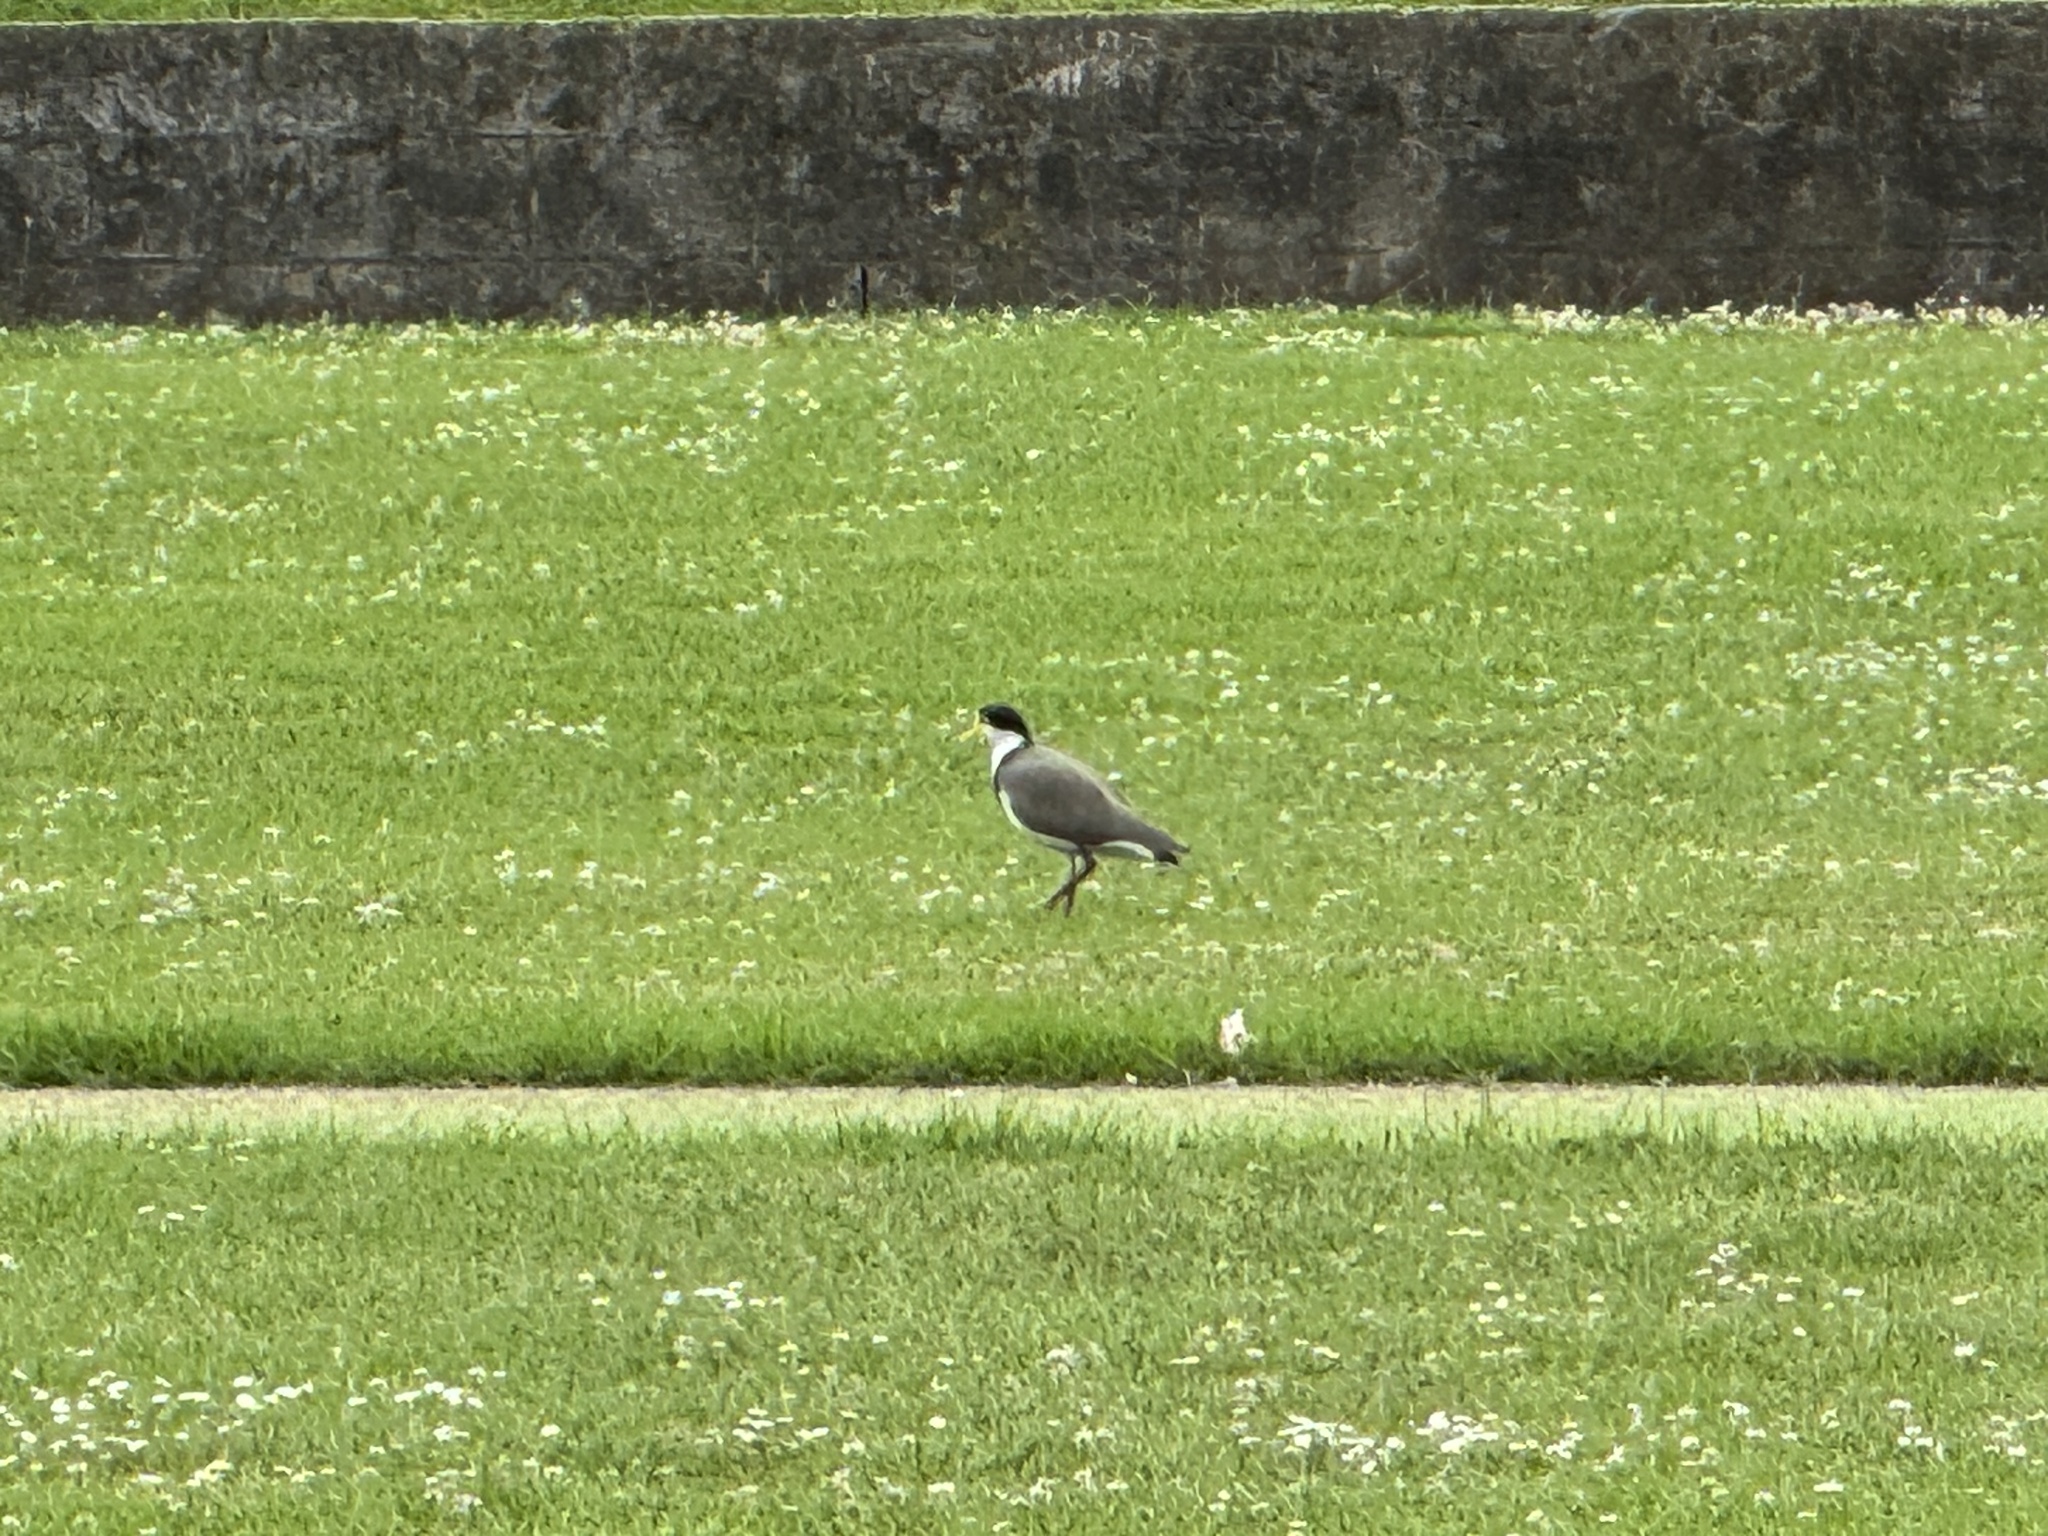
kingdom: Animalia
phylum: Chordata
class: Aves
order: Charadriiformes
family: Charadriidae
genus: Vanellus
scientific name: Vanellus miles
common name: Masked lapwing
